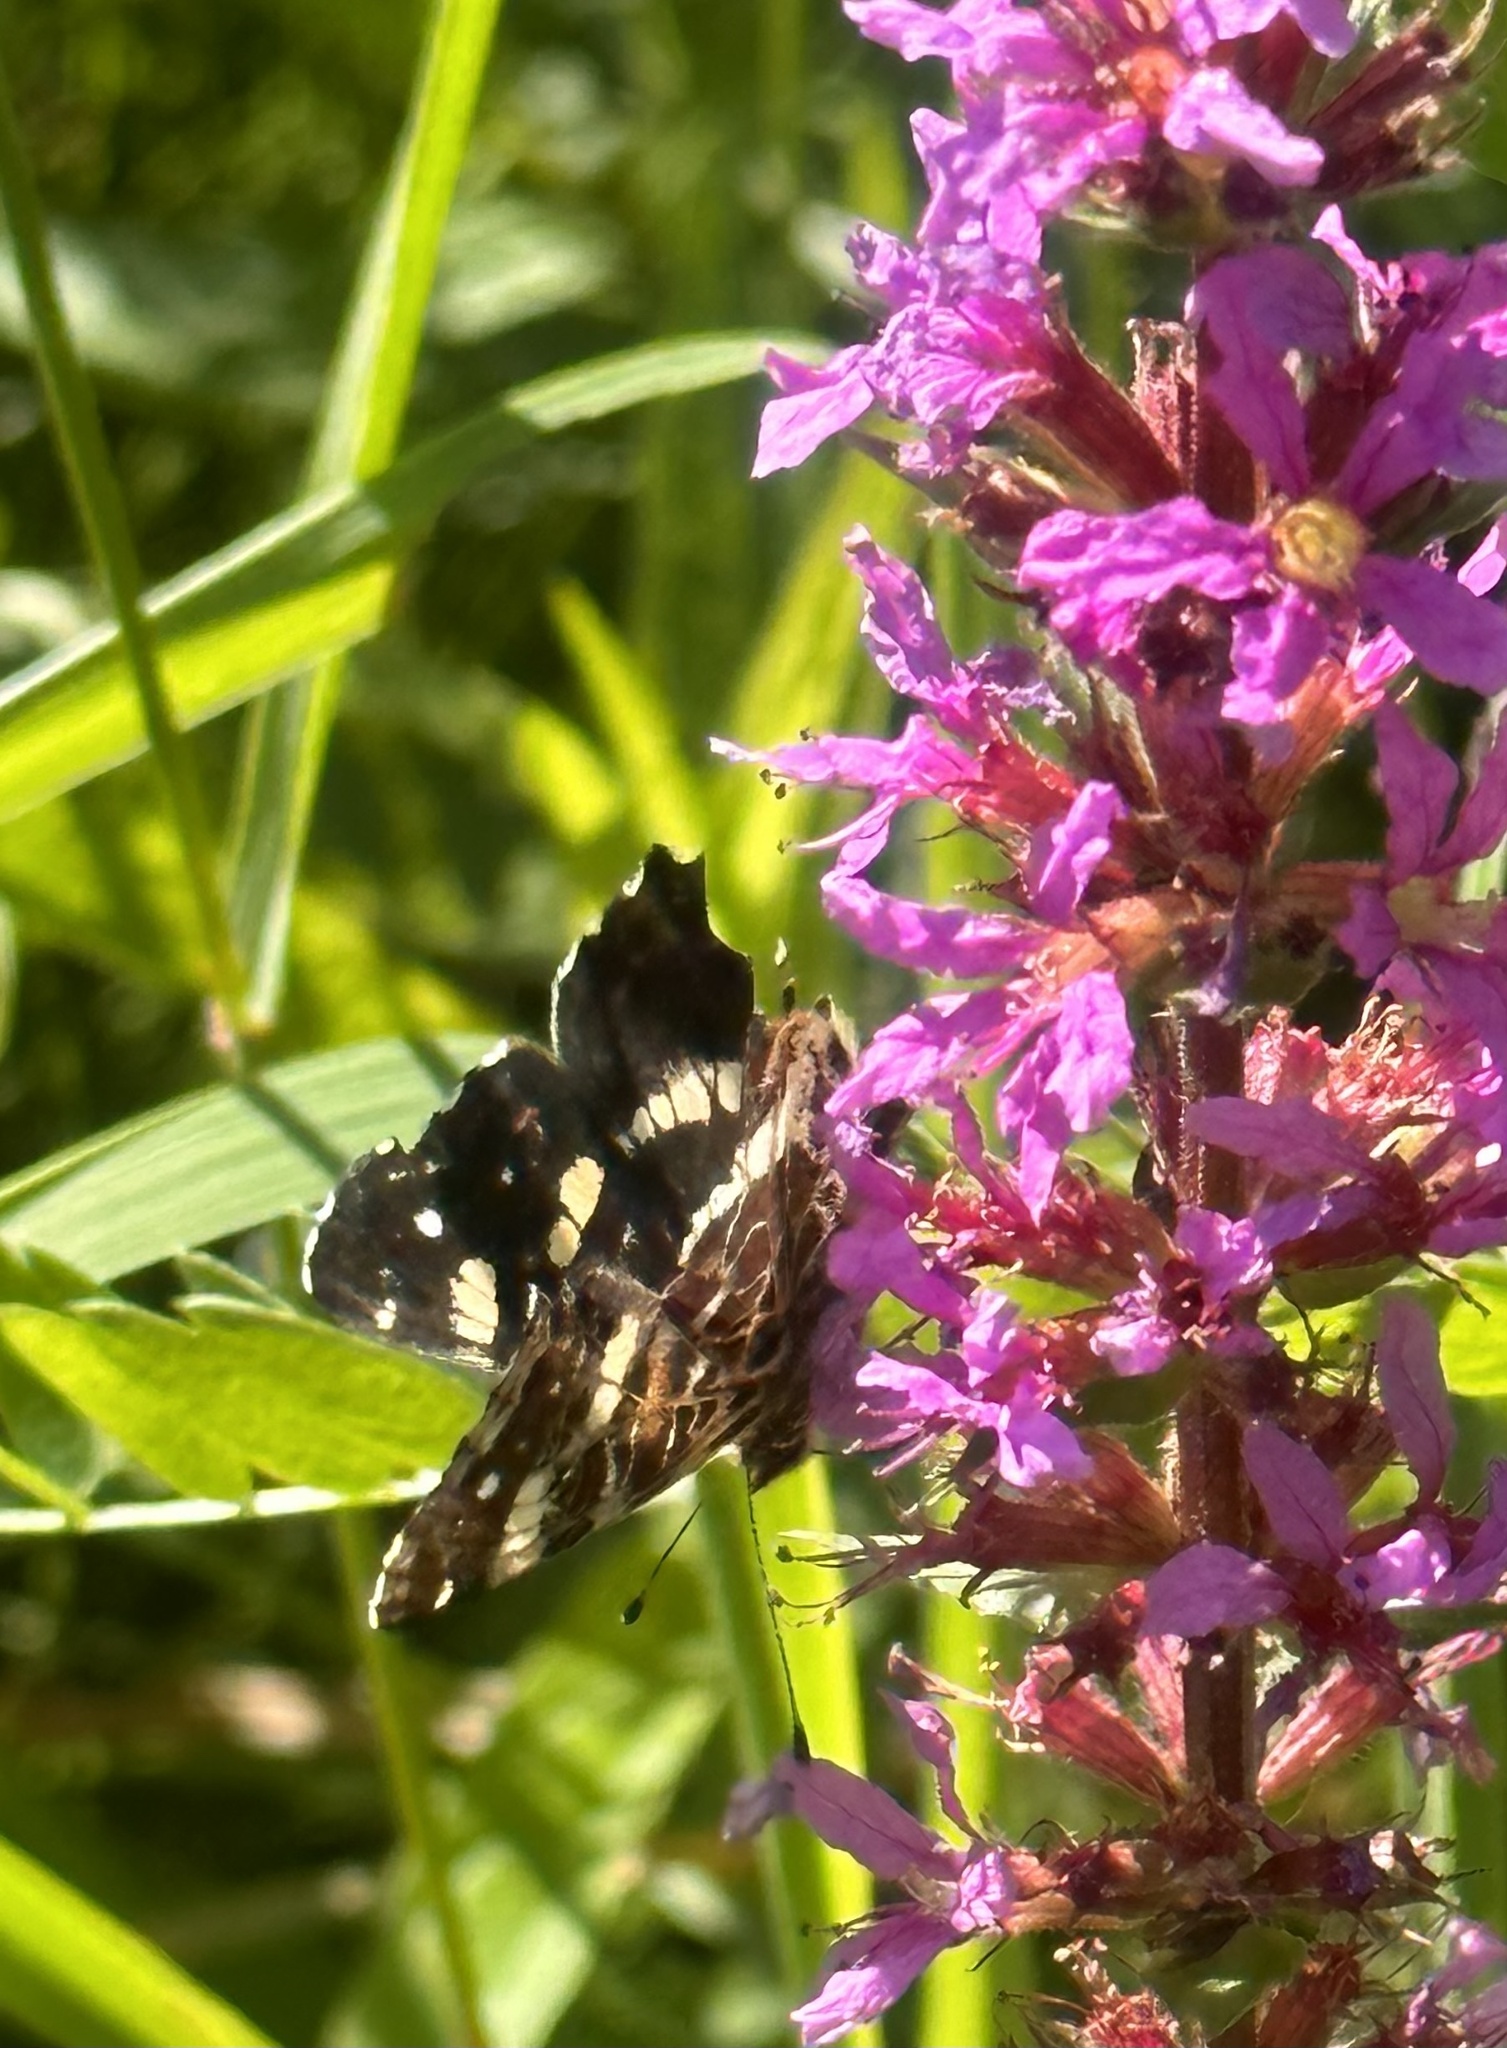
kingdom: Animalia
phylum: Arthropoda
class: Insecta
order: Lepidoptera
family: Nymphalidae
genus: Araschnia
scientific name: Araschnia levana
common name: Map butterfly
